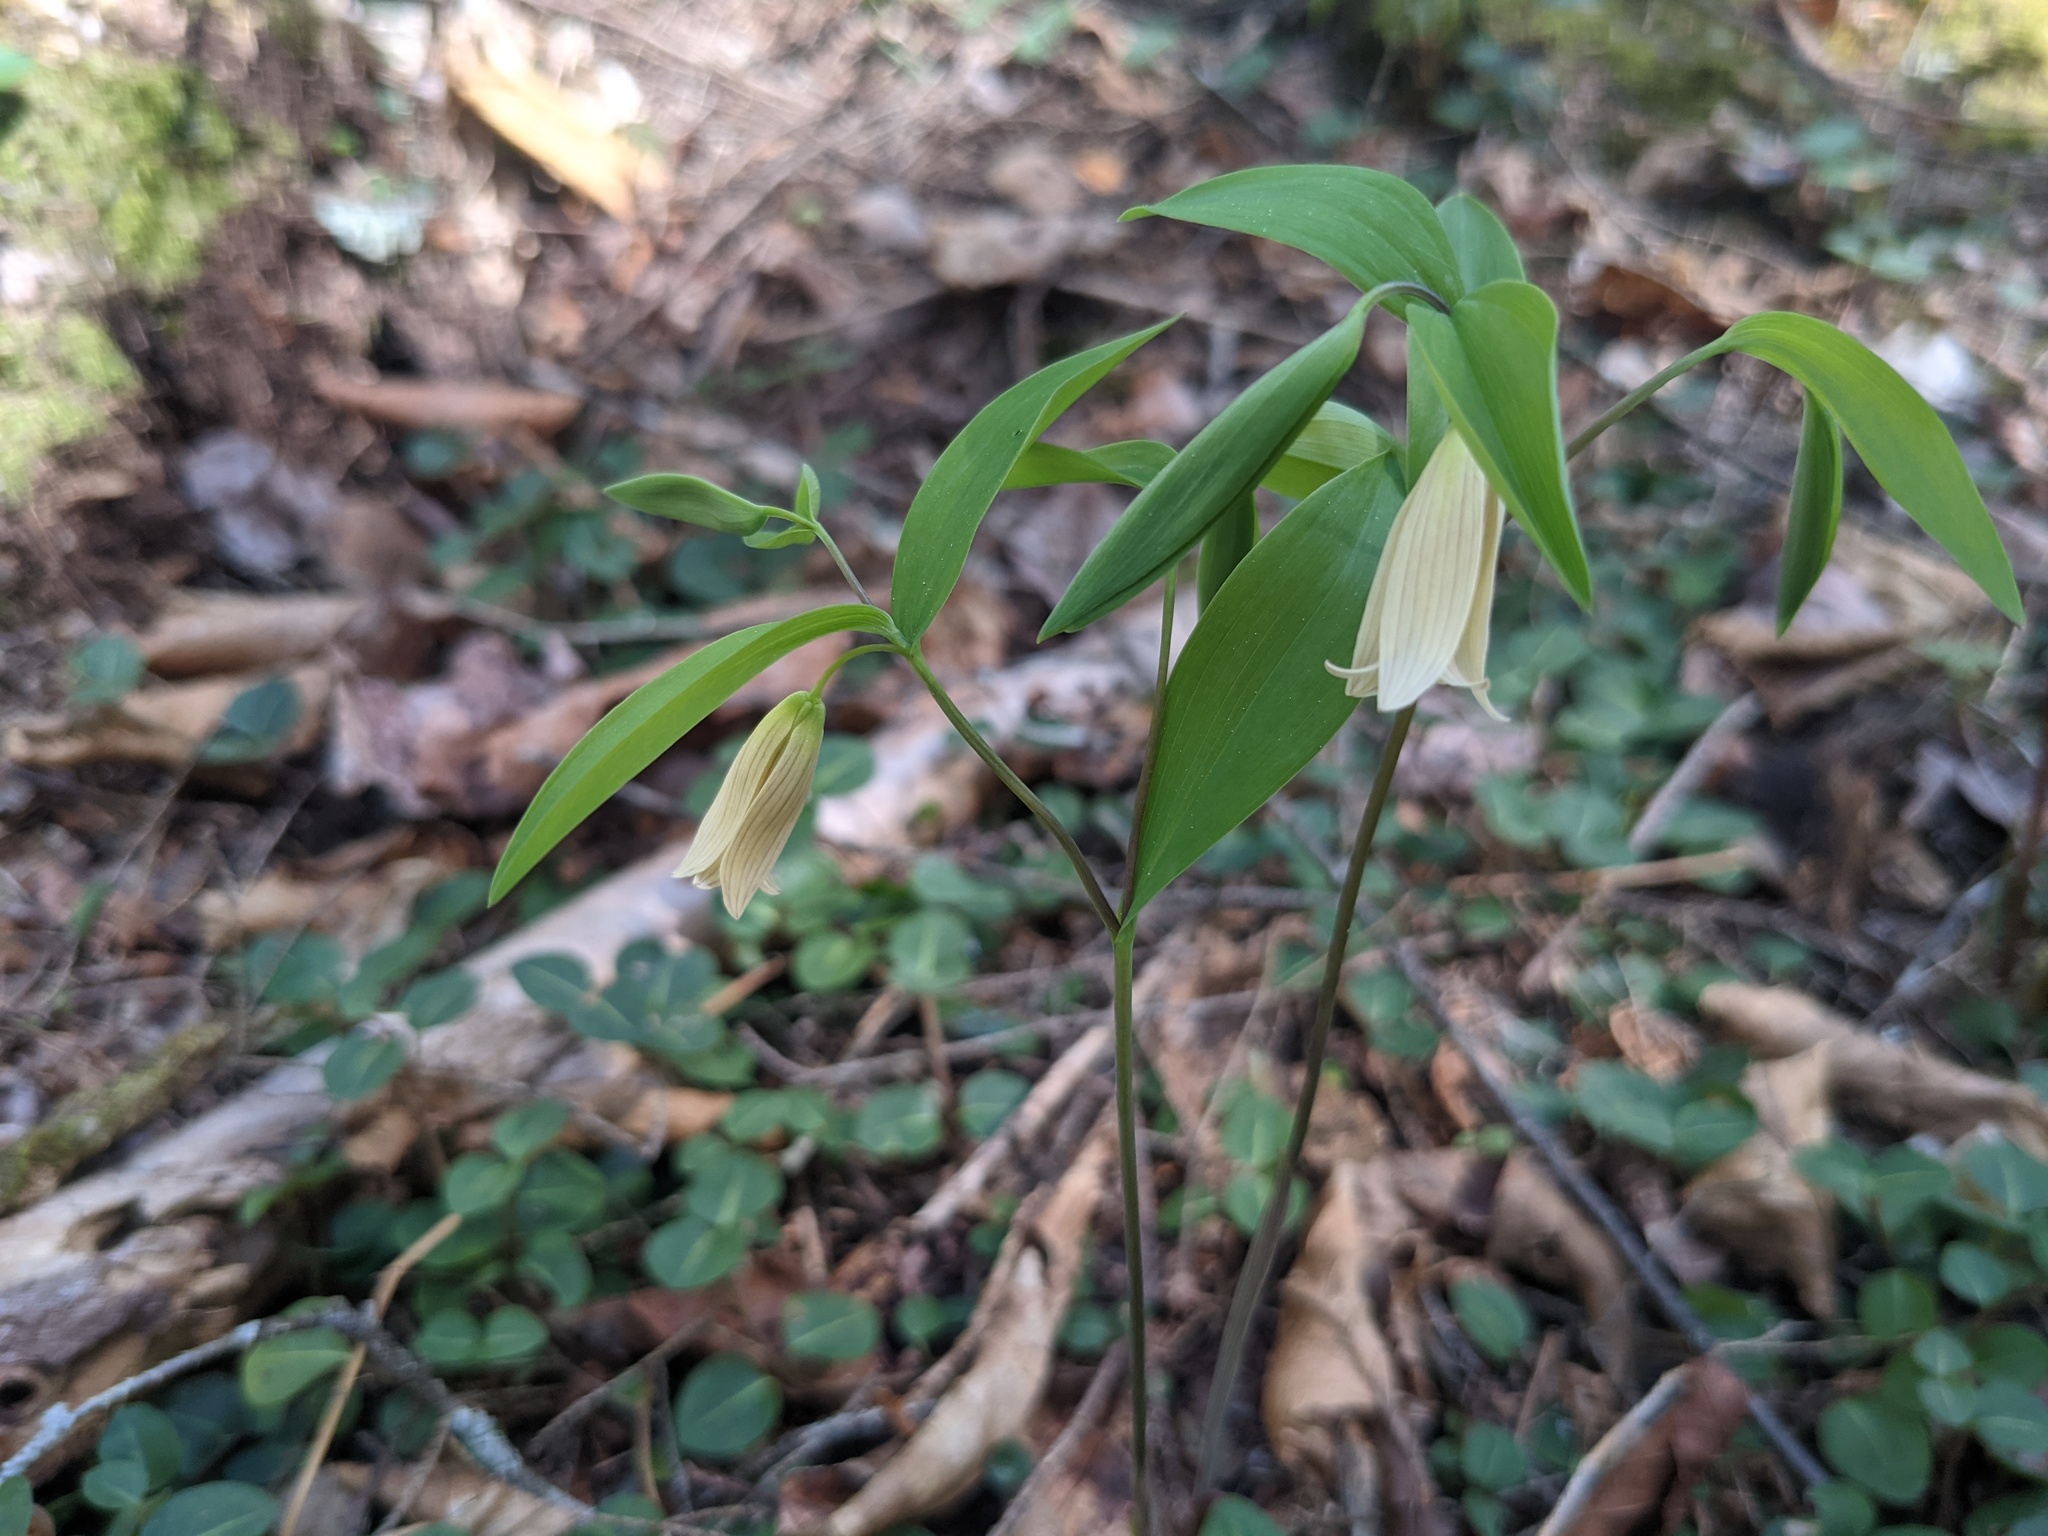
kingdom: Plantae
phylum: Tracheophyta
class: Liliopsida
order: Liliales
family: Colchicaceae
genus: Uvularia
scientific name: Uvularia sessilifolia
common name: Straw-lily
